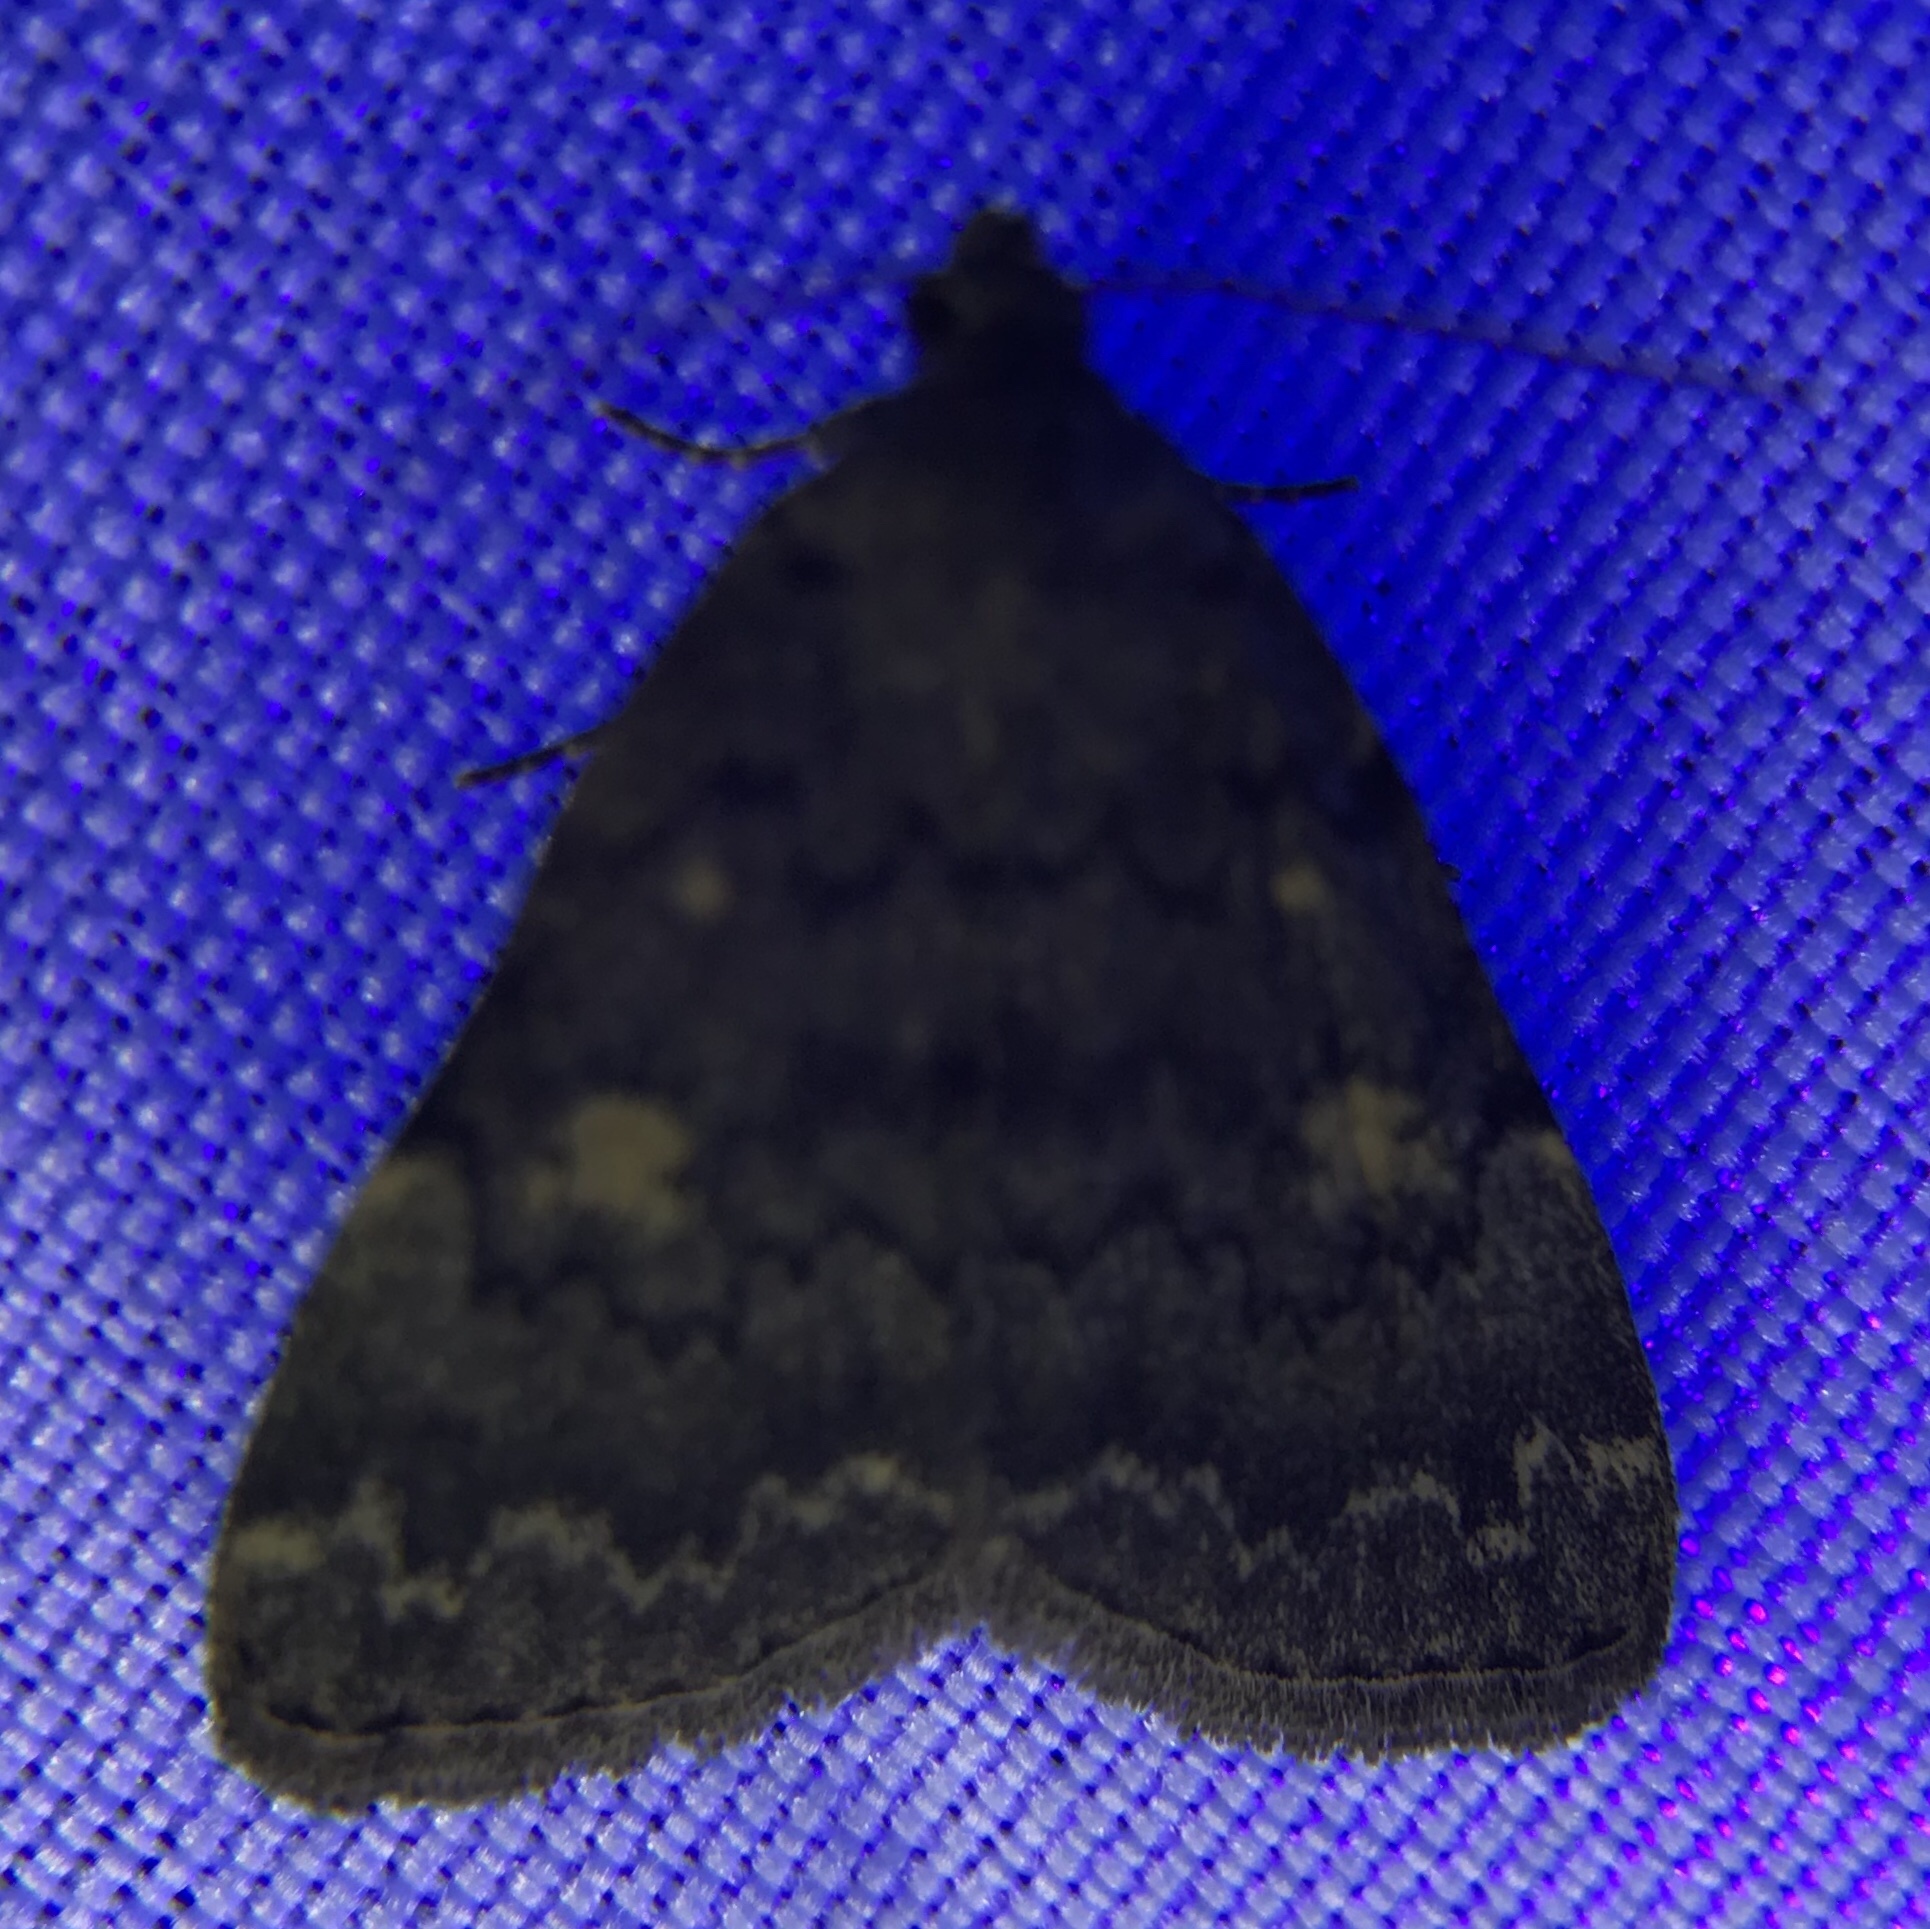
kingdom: Animalia
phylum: Arthropoda
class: Insecta
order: Lepidoptera
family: Erebidae
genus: Idia
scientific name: Idia aemula
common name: Common idia moth
